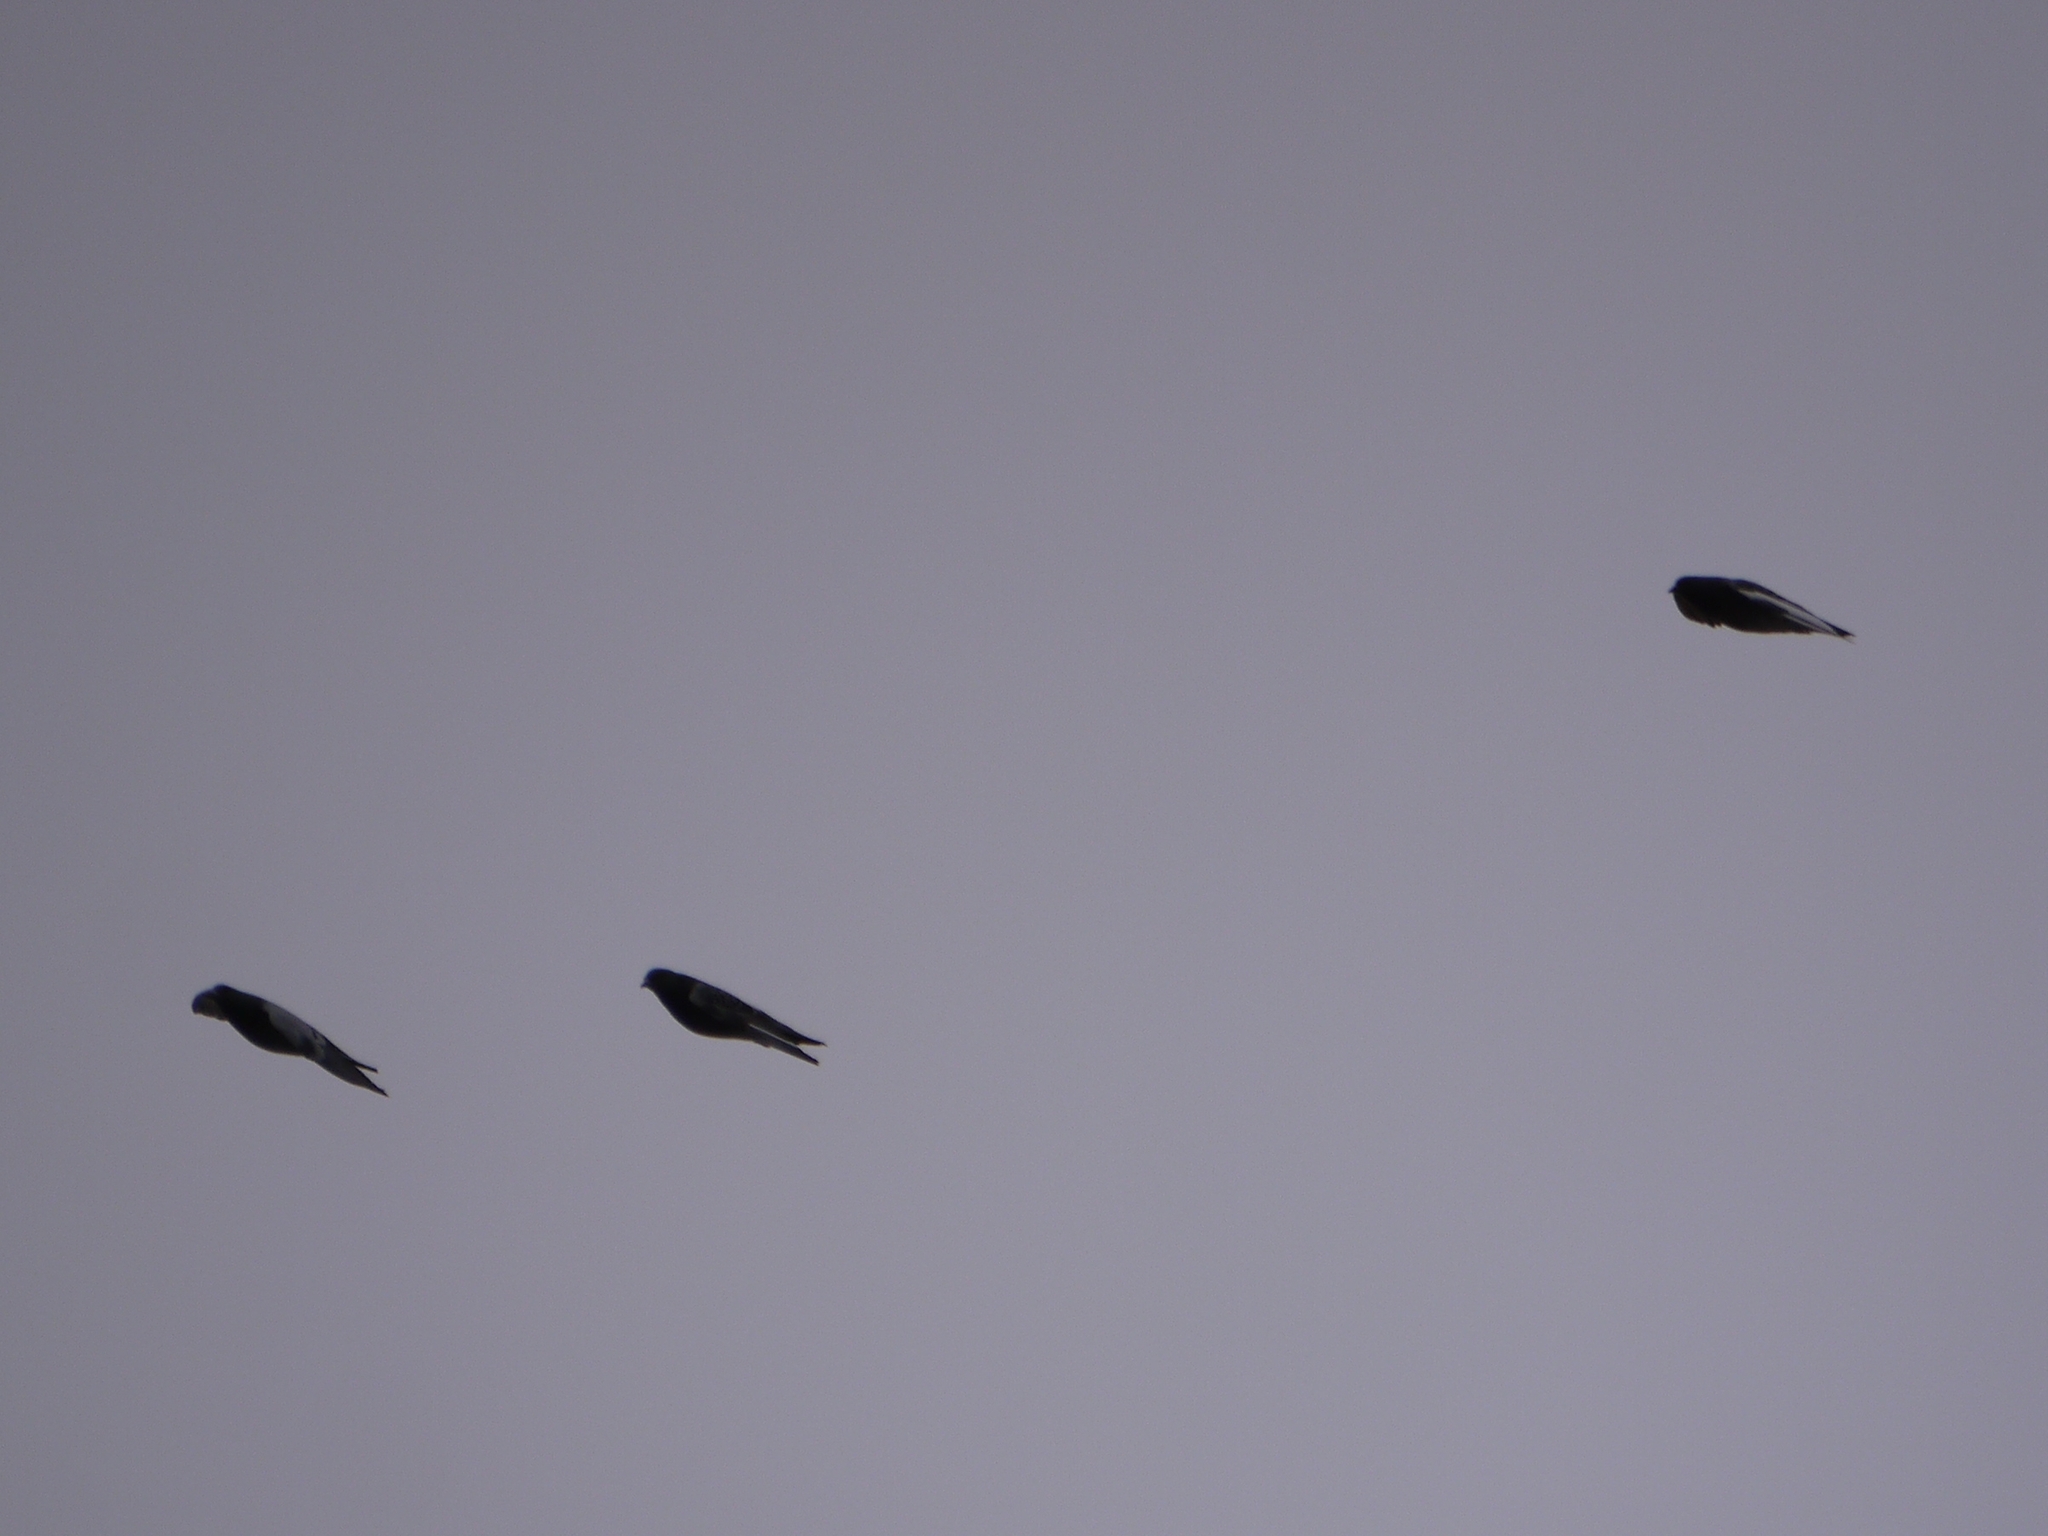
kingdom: Animalia
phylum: Chordata
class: Aves
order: Columbiformes
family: Columbidae
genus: Columba
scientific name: Columba livia
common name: Rock pigeon
